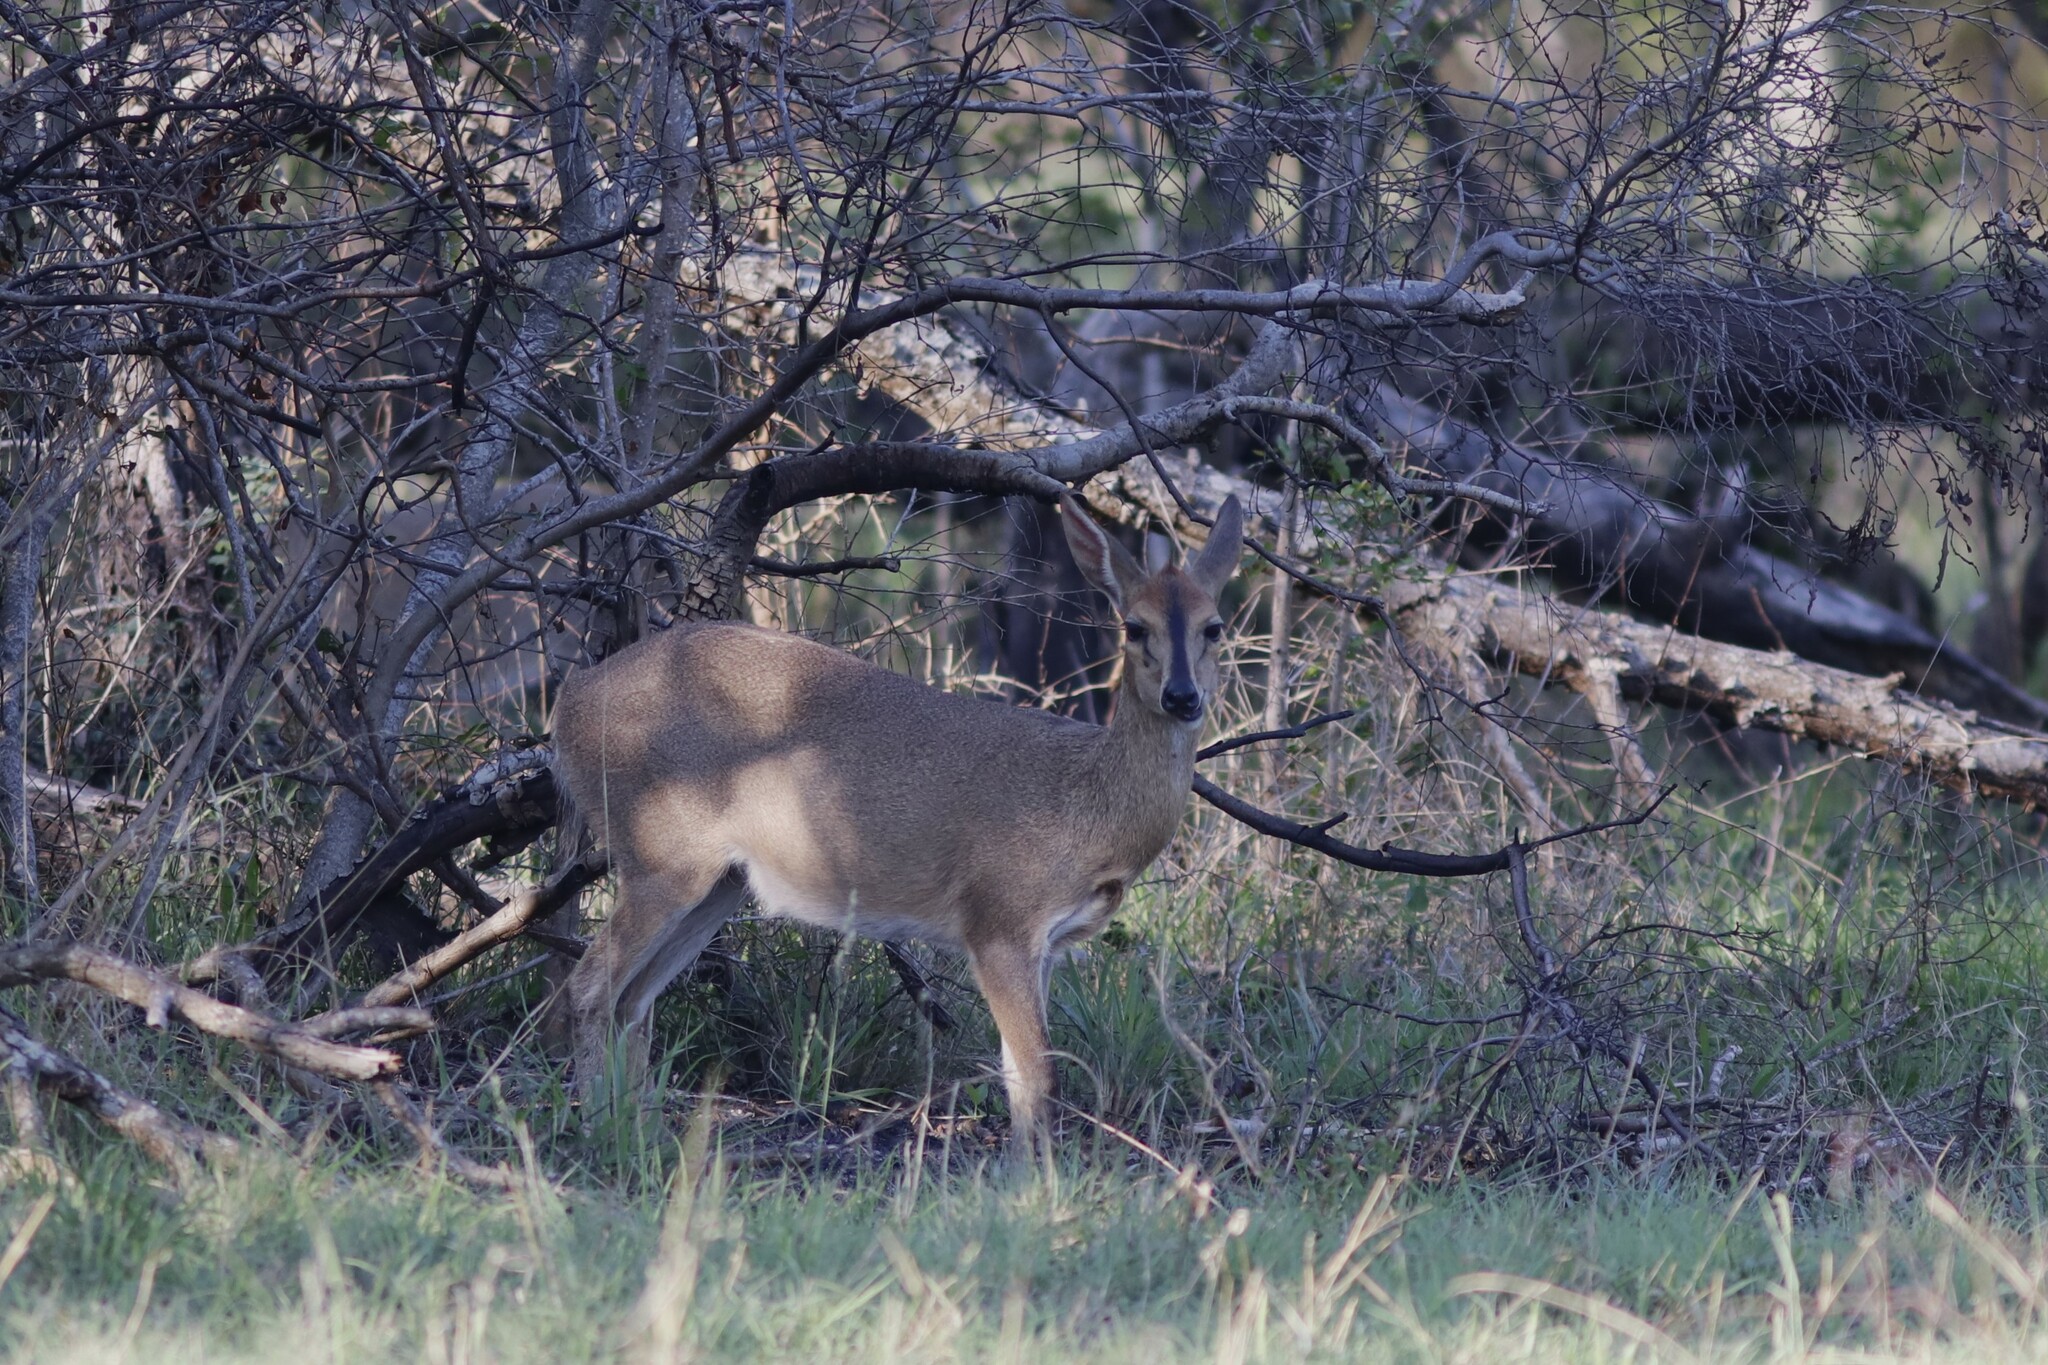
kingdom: Animalia
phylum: Chordata
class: Mammalia
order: Artiodactyla
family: Bovidae
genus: Sylvicapra
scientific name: Sylvicapra grimmia
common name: Bush duiker
